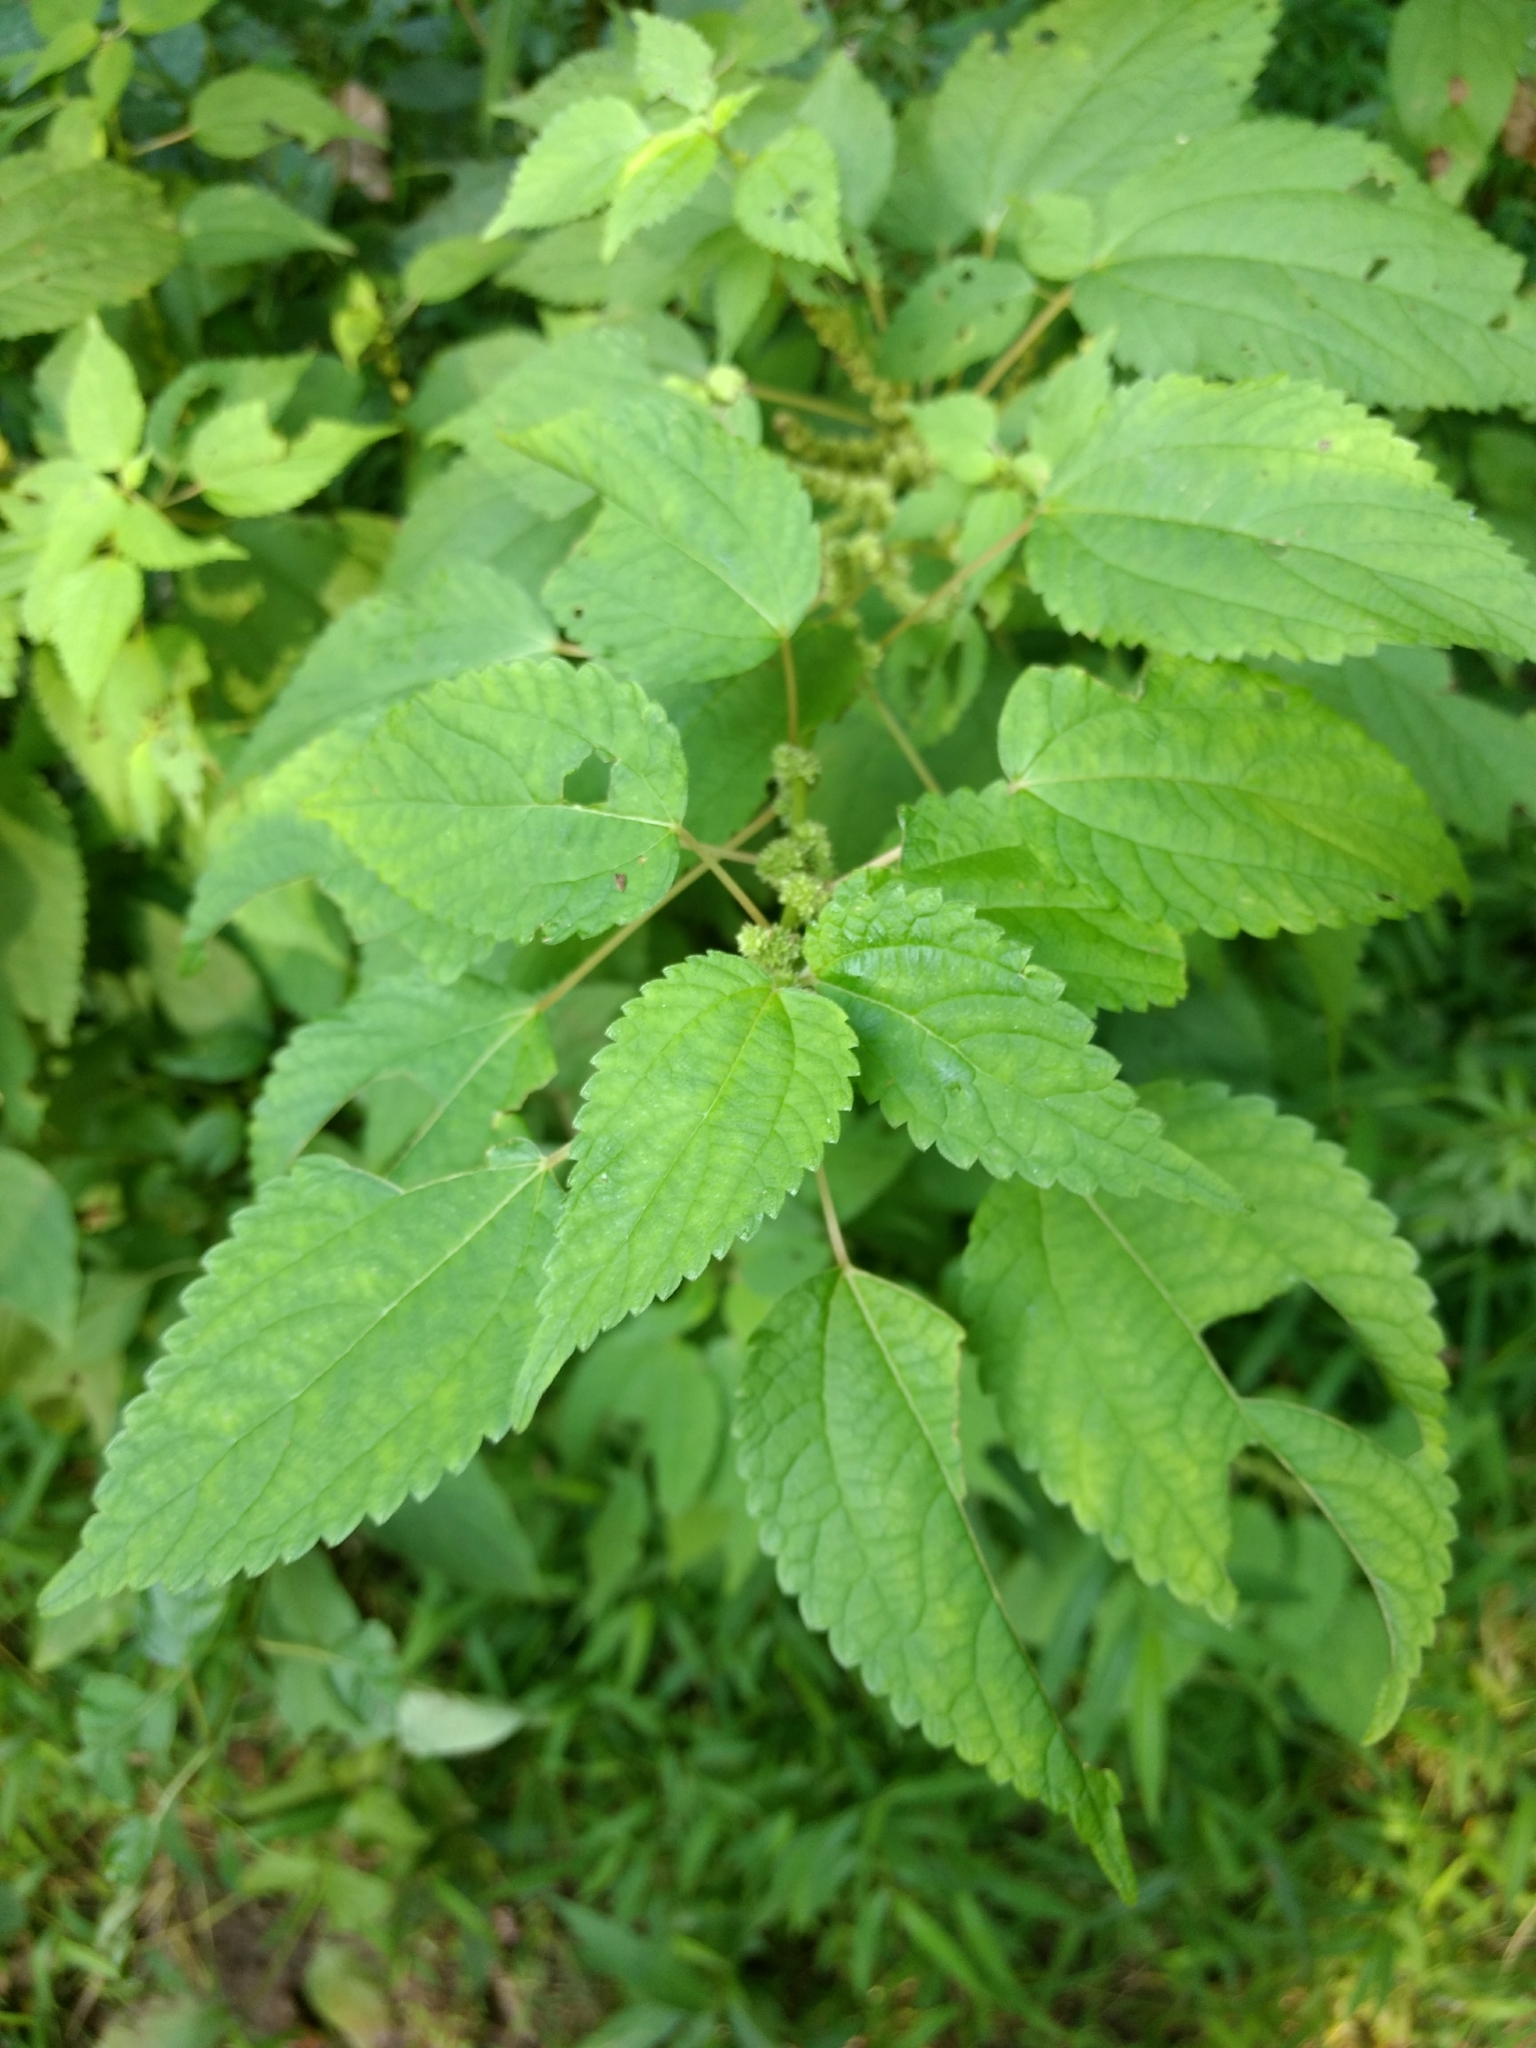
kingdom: Plantae
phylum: Tracheophyta
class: Magnoliopsida
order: Rosales
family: Urticaceae
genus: Boehmeria
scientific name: Boehmeria cylindrica
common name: Bog-hemp
